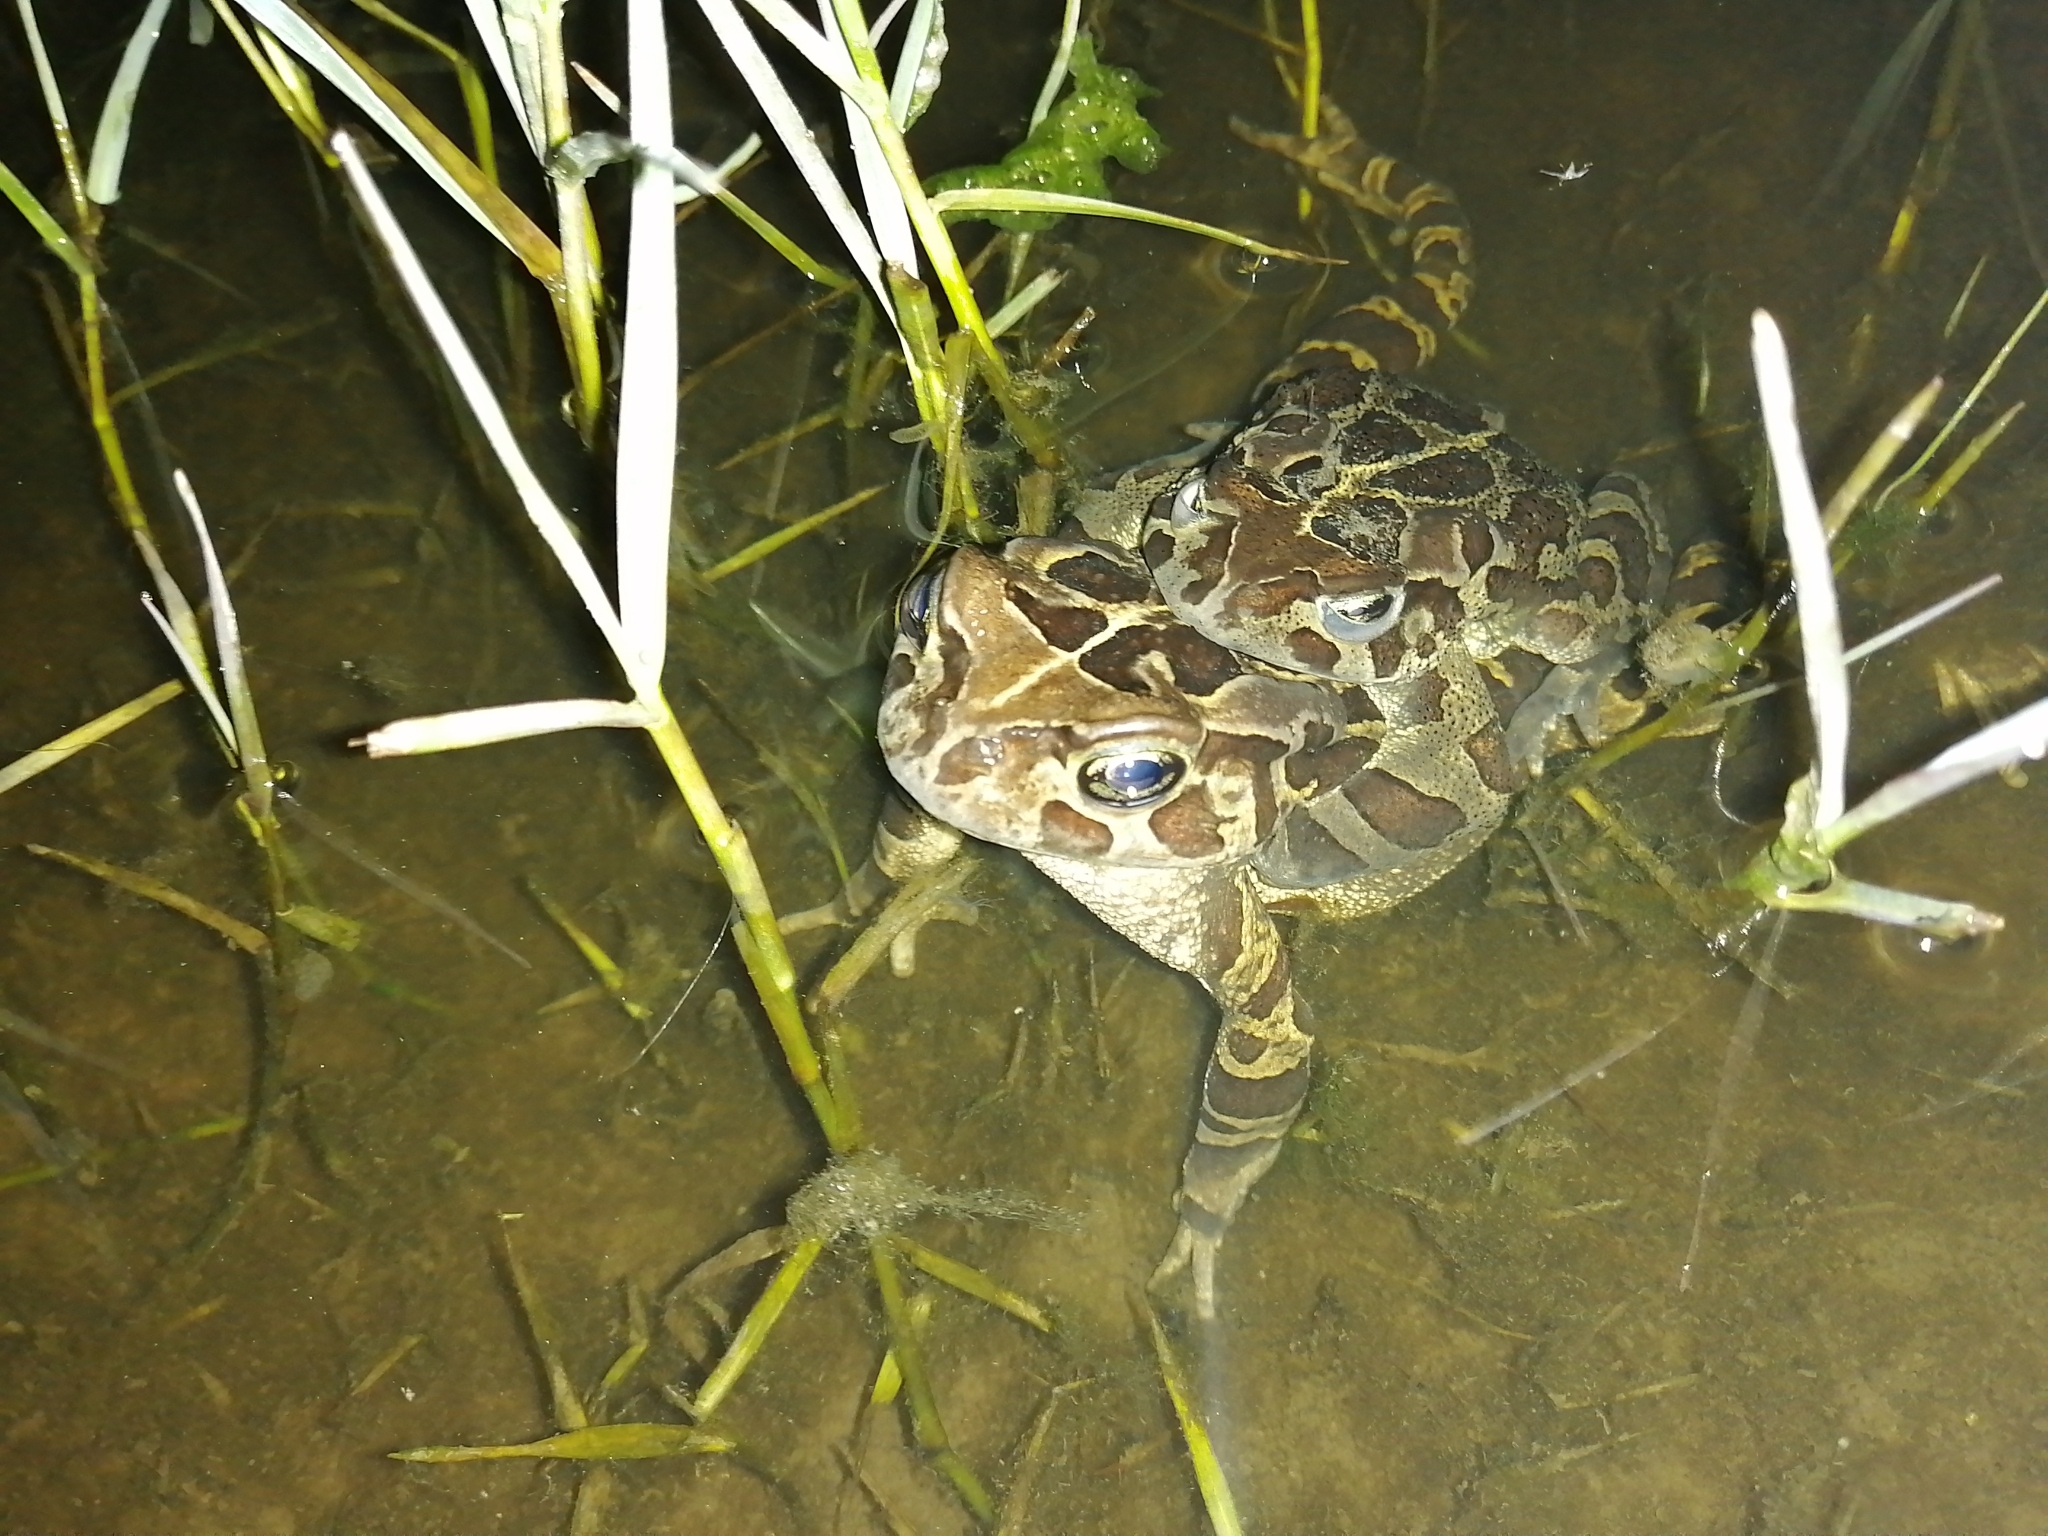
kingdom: Animalia
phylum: Chordata
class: Amphibia
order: Anura
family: Bufonidae
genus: Sclerophrys
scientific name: Sclerophrys pantherina
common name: Panther toad
